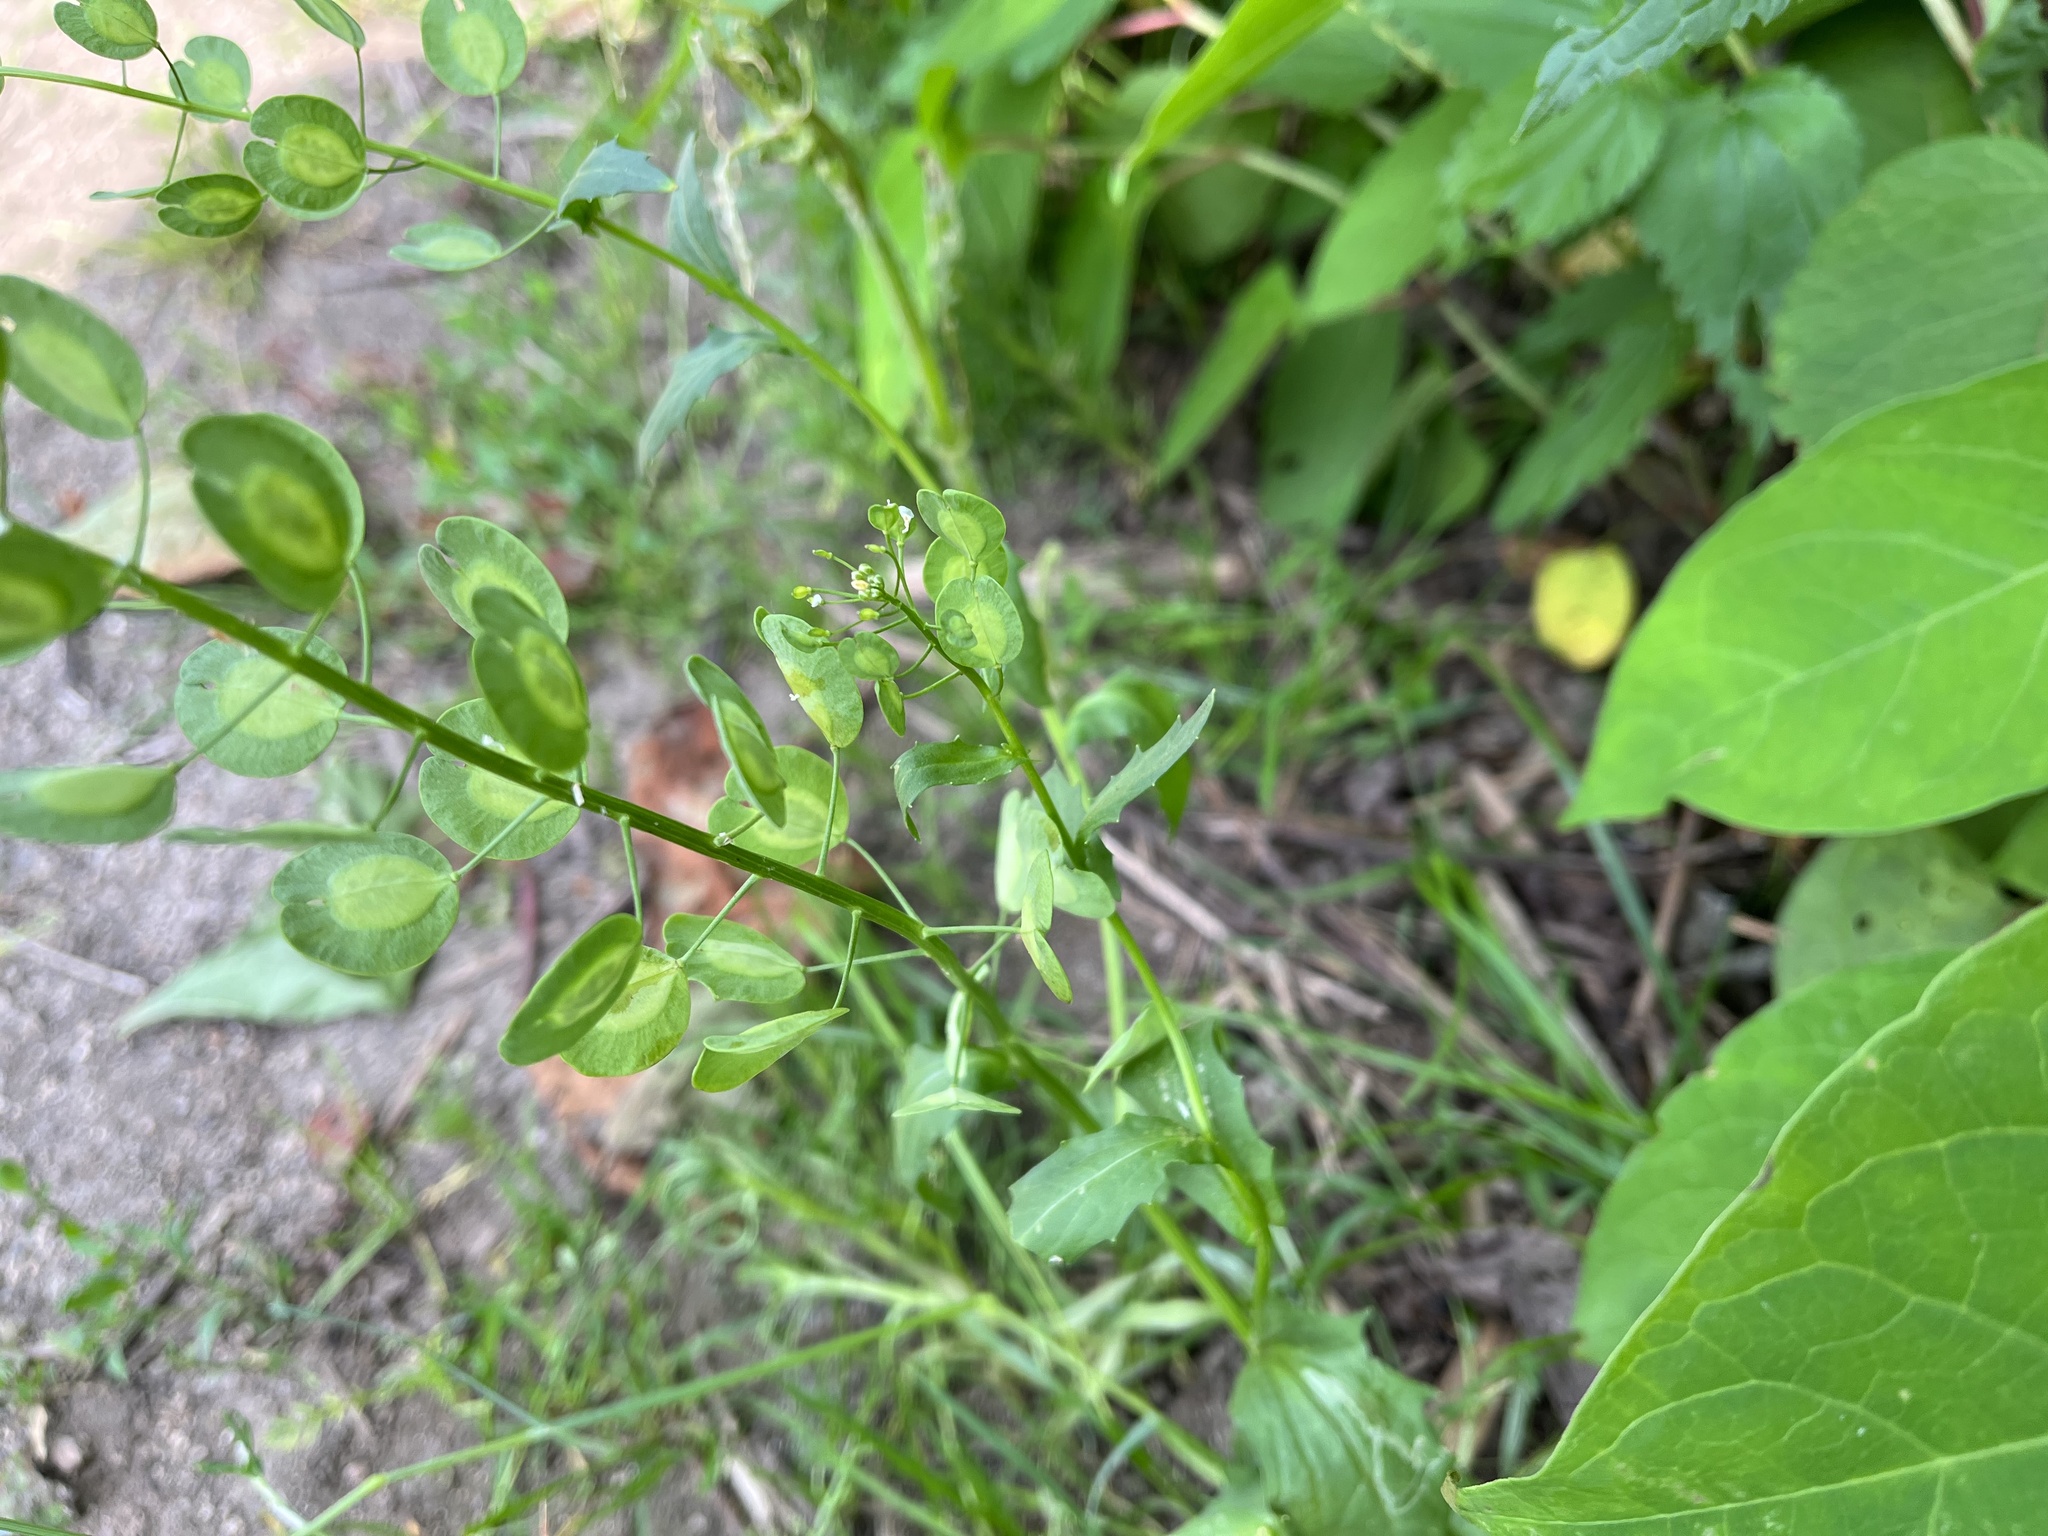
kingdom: Plantae
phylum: Tracheophyta
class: Magnoliopsida
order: Brassicales
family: Brassicaceae
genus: Thlaspi
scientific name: Thlaspi arvense
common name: Field pennycress
